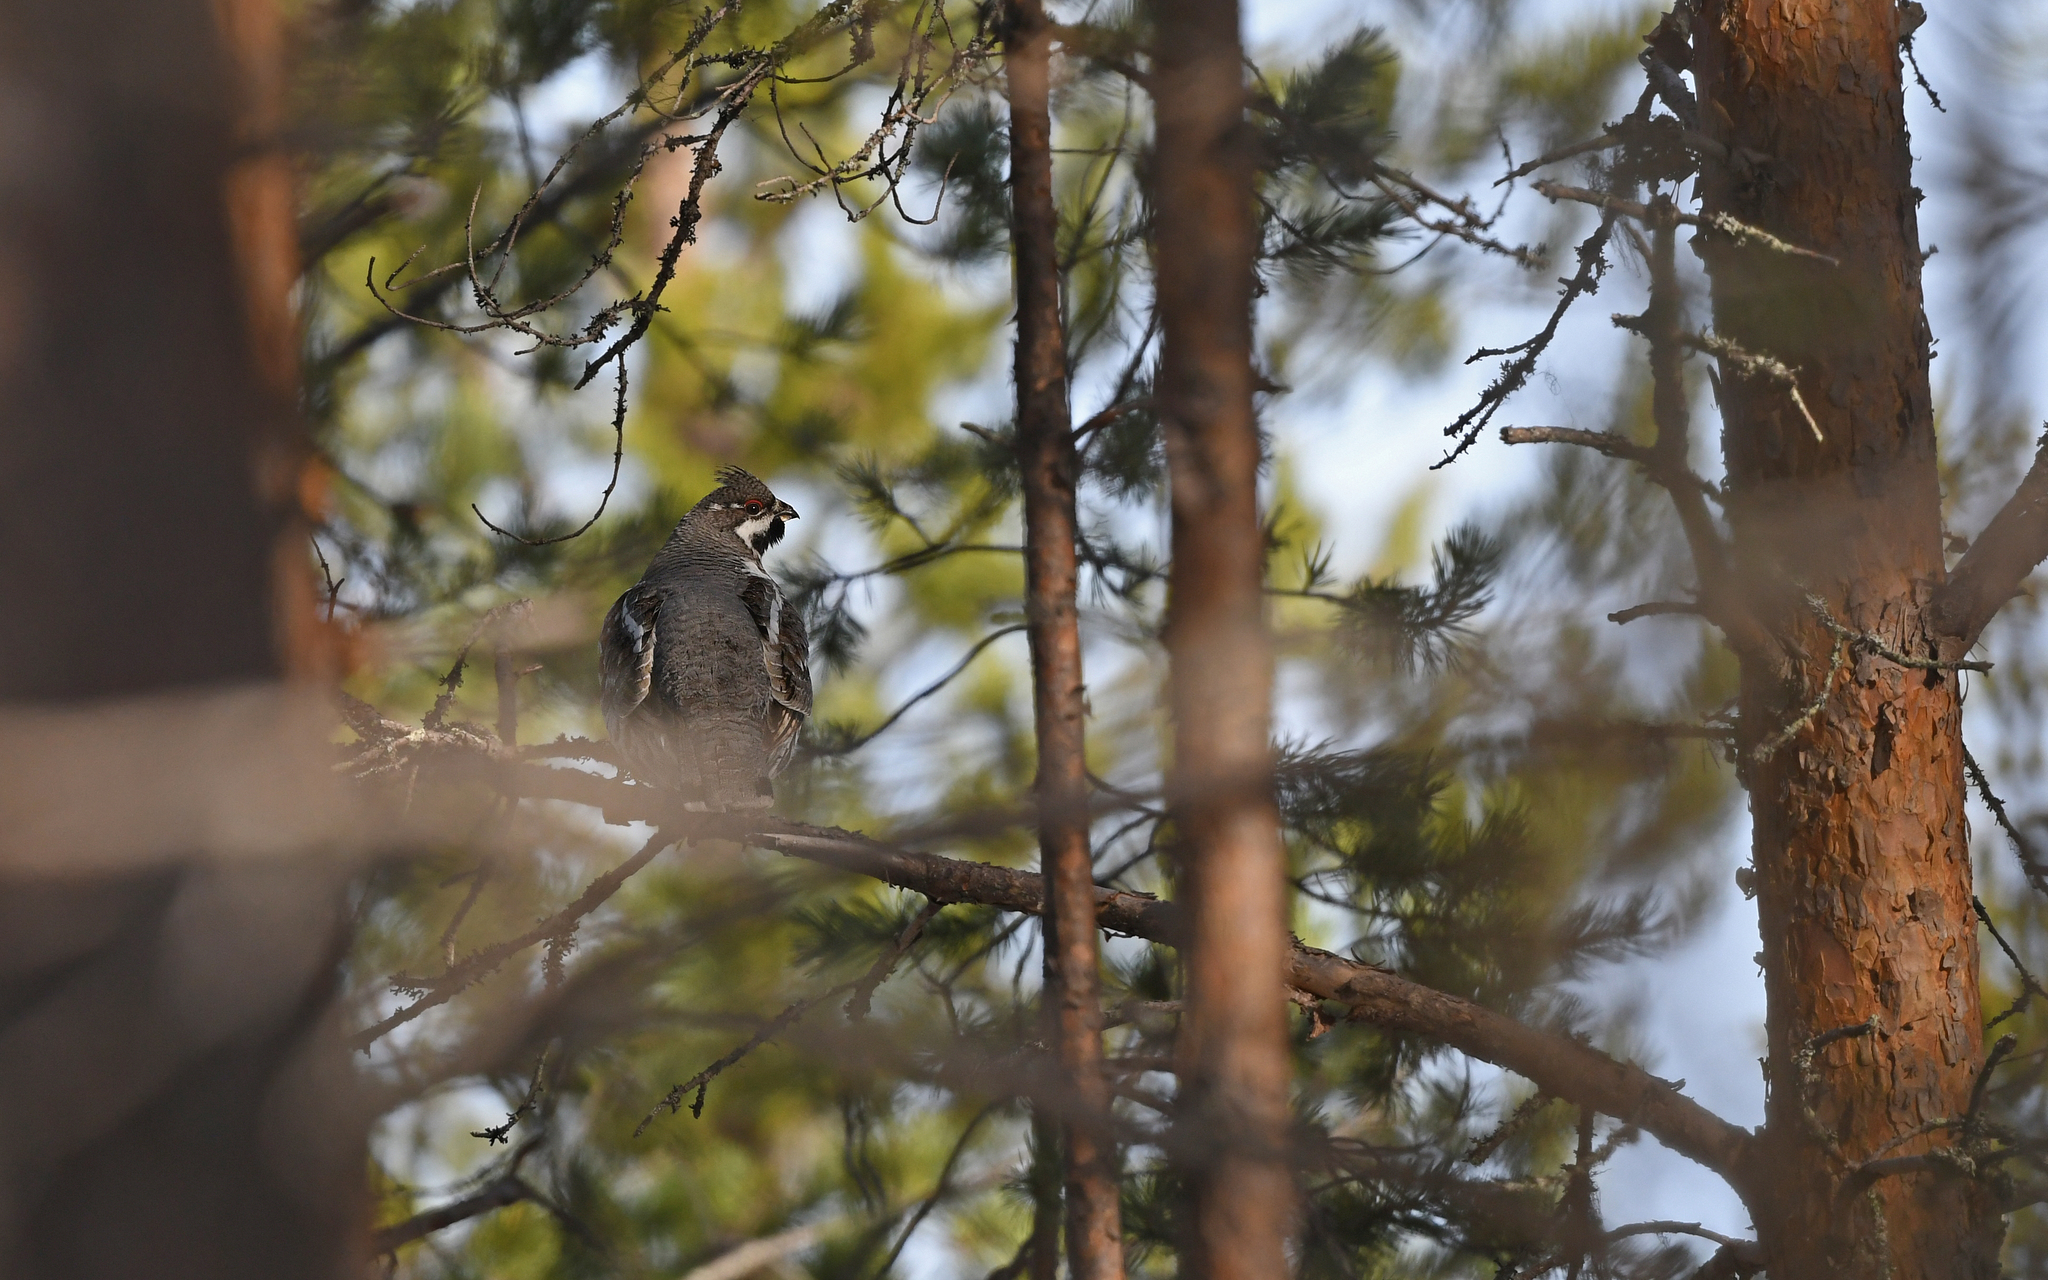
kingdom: Animalia
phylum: Chordata
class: Aves
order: Galliformes
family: Phasianidae
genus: Tetrastes
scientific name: Tetrastes bonasia
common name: Hazel grouse
